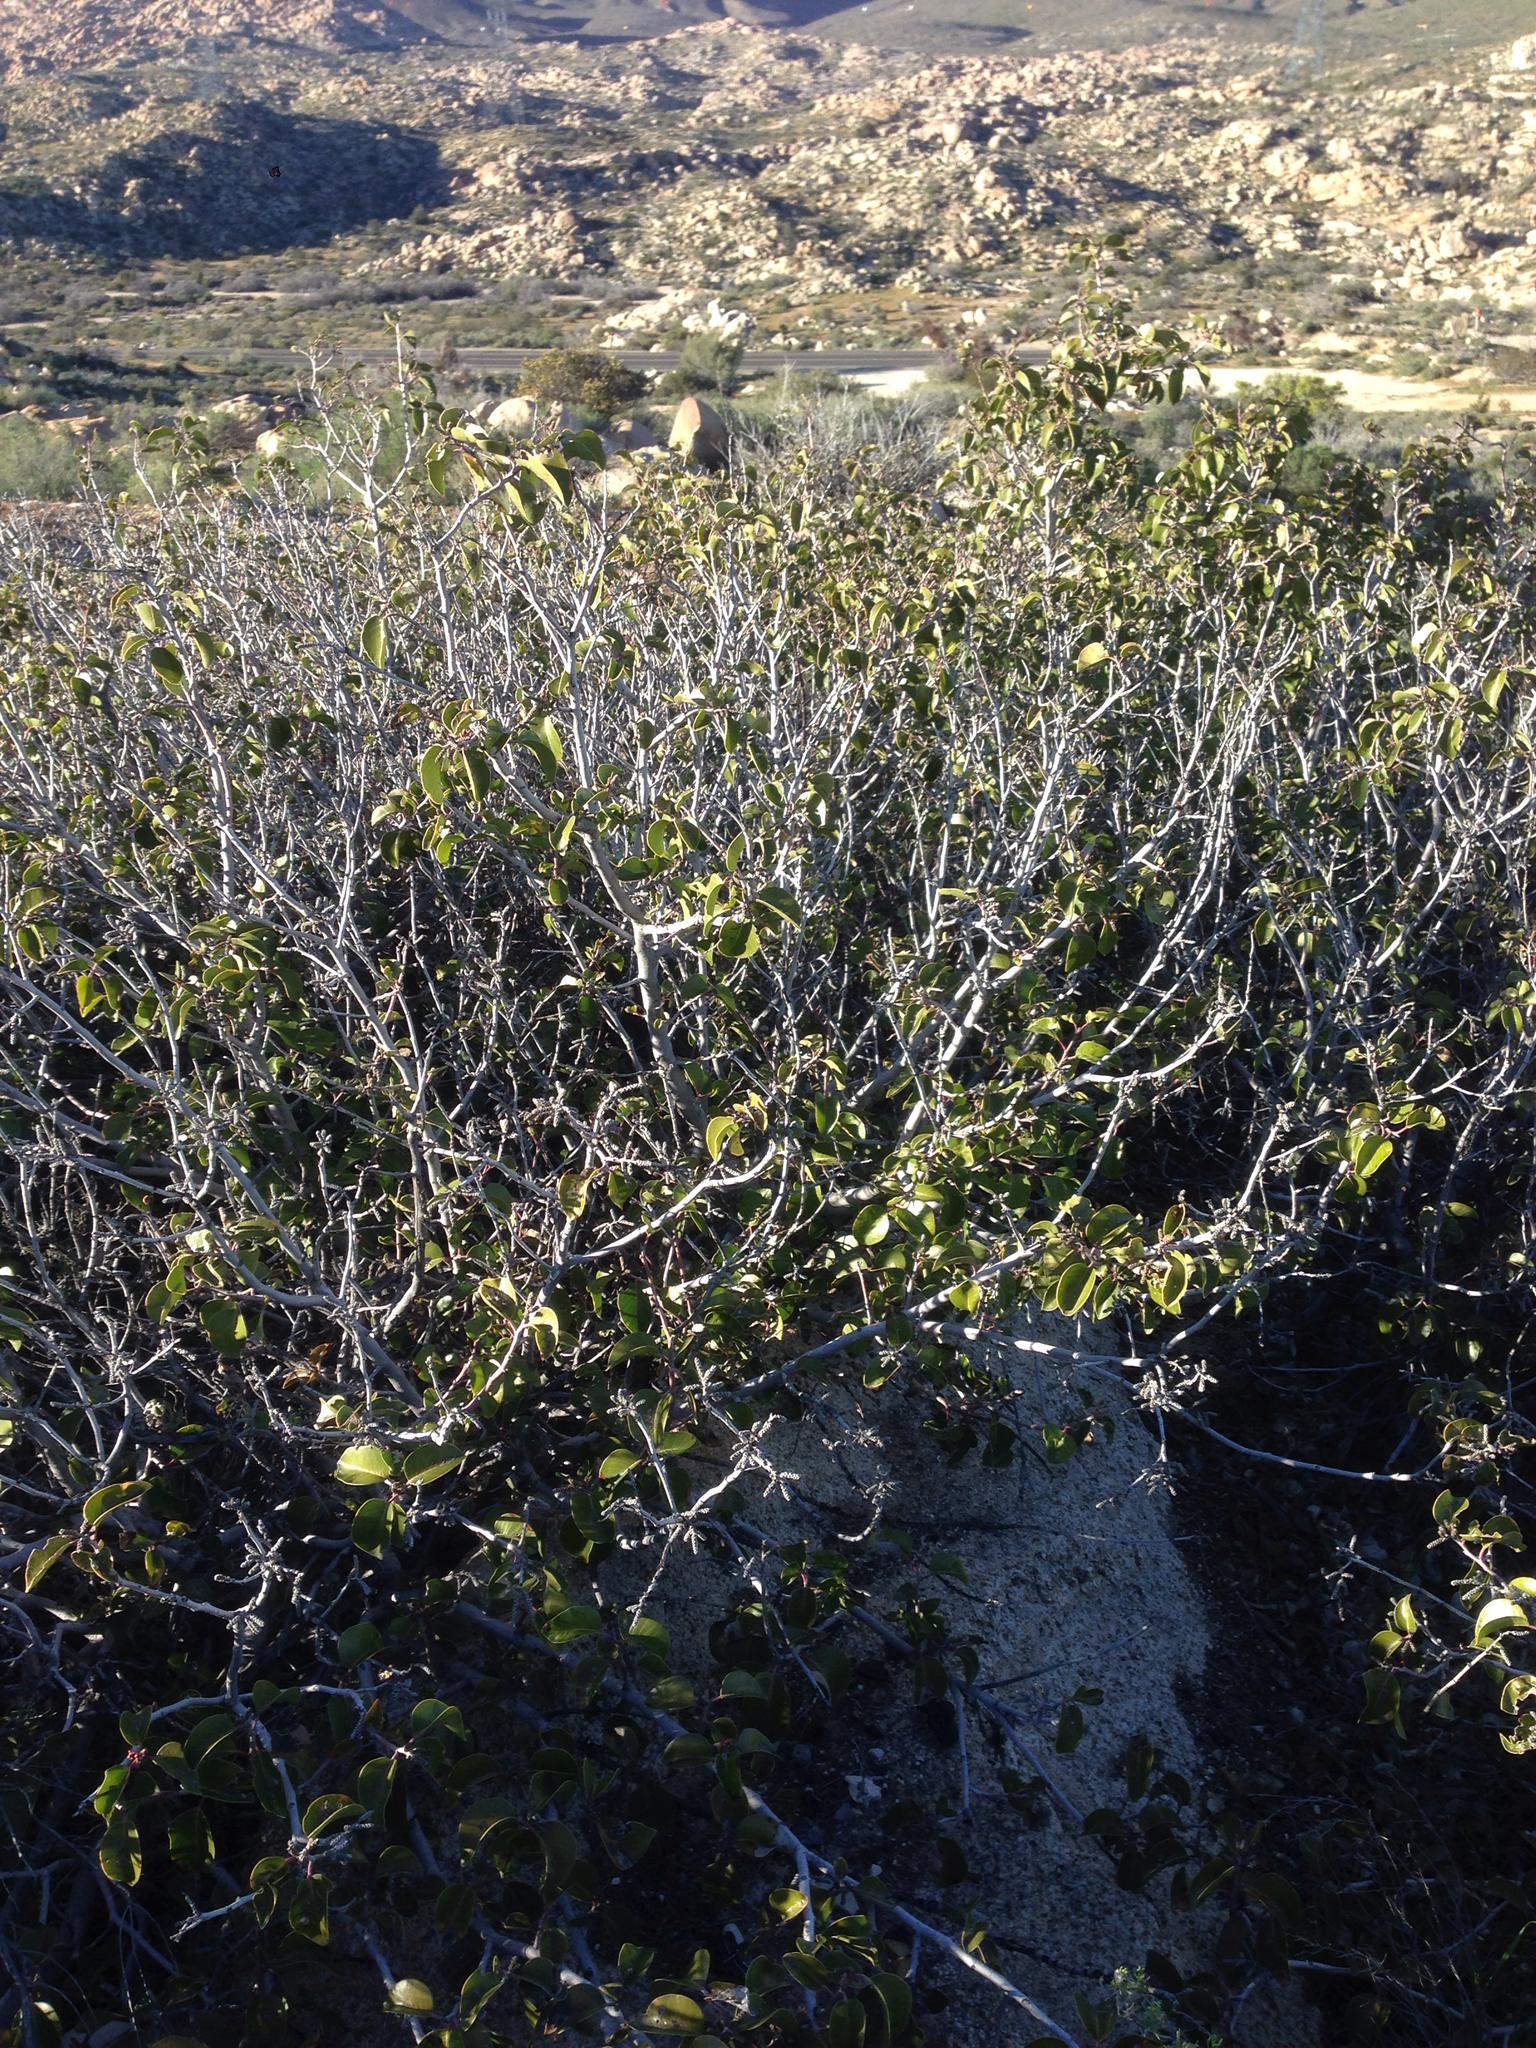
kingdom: Plantae
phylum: Tracheophyta
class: Magnoliopsida
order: Sapindales
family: Anacardiaceae
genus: Rhus
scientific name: Rhus ovata
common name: Sugar sumac
